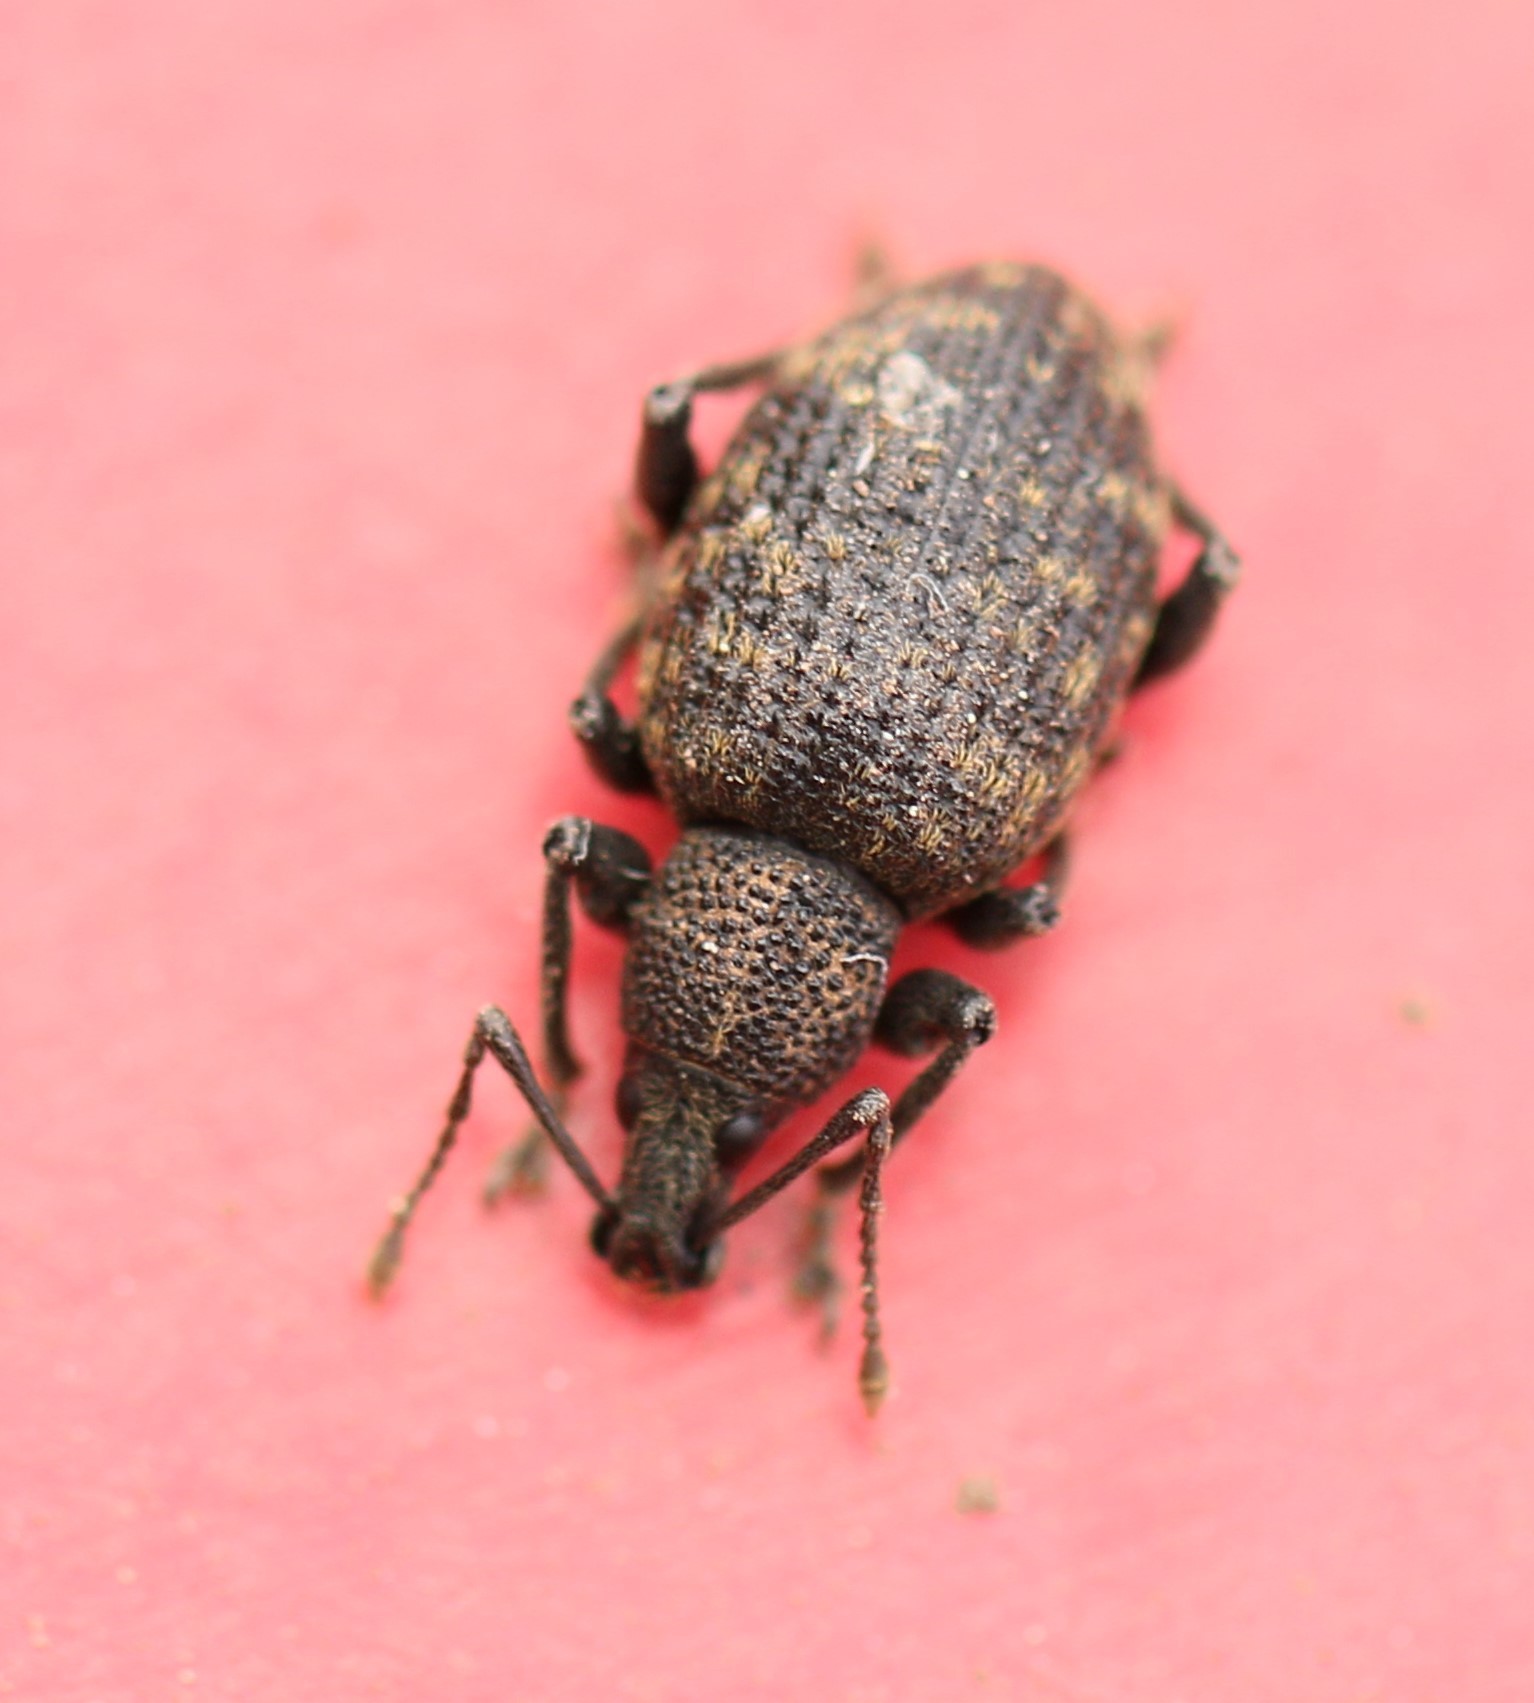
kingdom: Animalia
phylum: Arthropoda
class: Insecta
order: Coleoptera
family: Curculionidae
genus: Otiorhynchus
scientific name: Otiorhynchus sulcatus
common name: Black vine weevil
